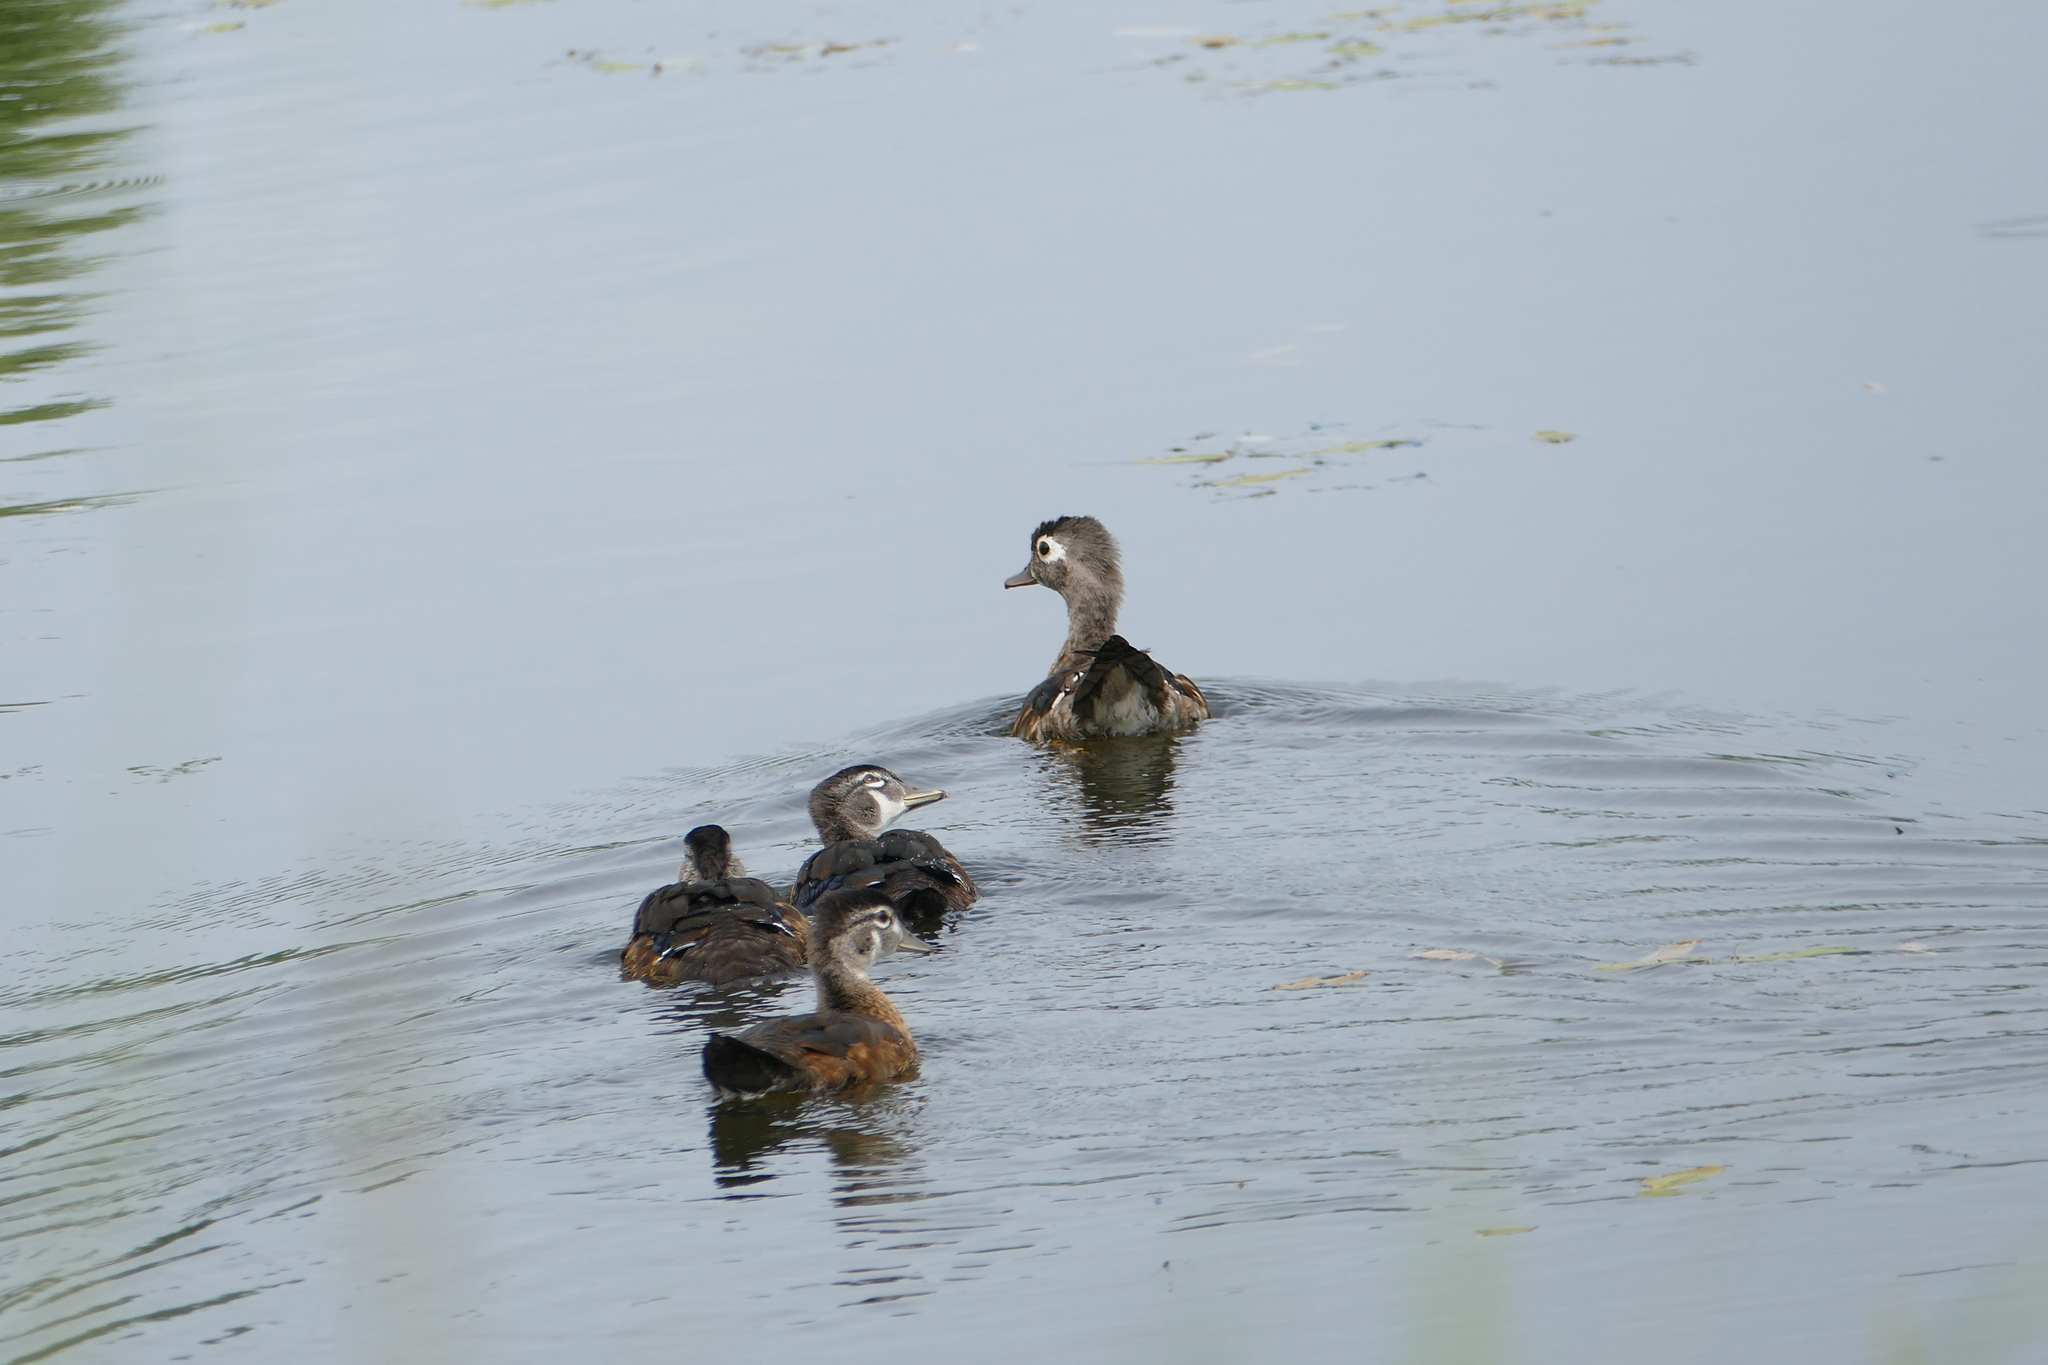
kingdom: Animalia
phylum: Chordata
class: Aves
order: Anseriformes
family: Anatidae
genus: Aix
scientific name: Aix sponsa
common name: Wood duck
